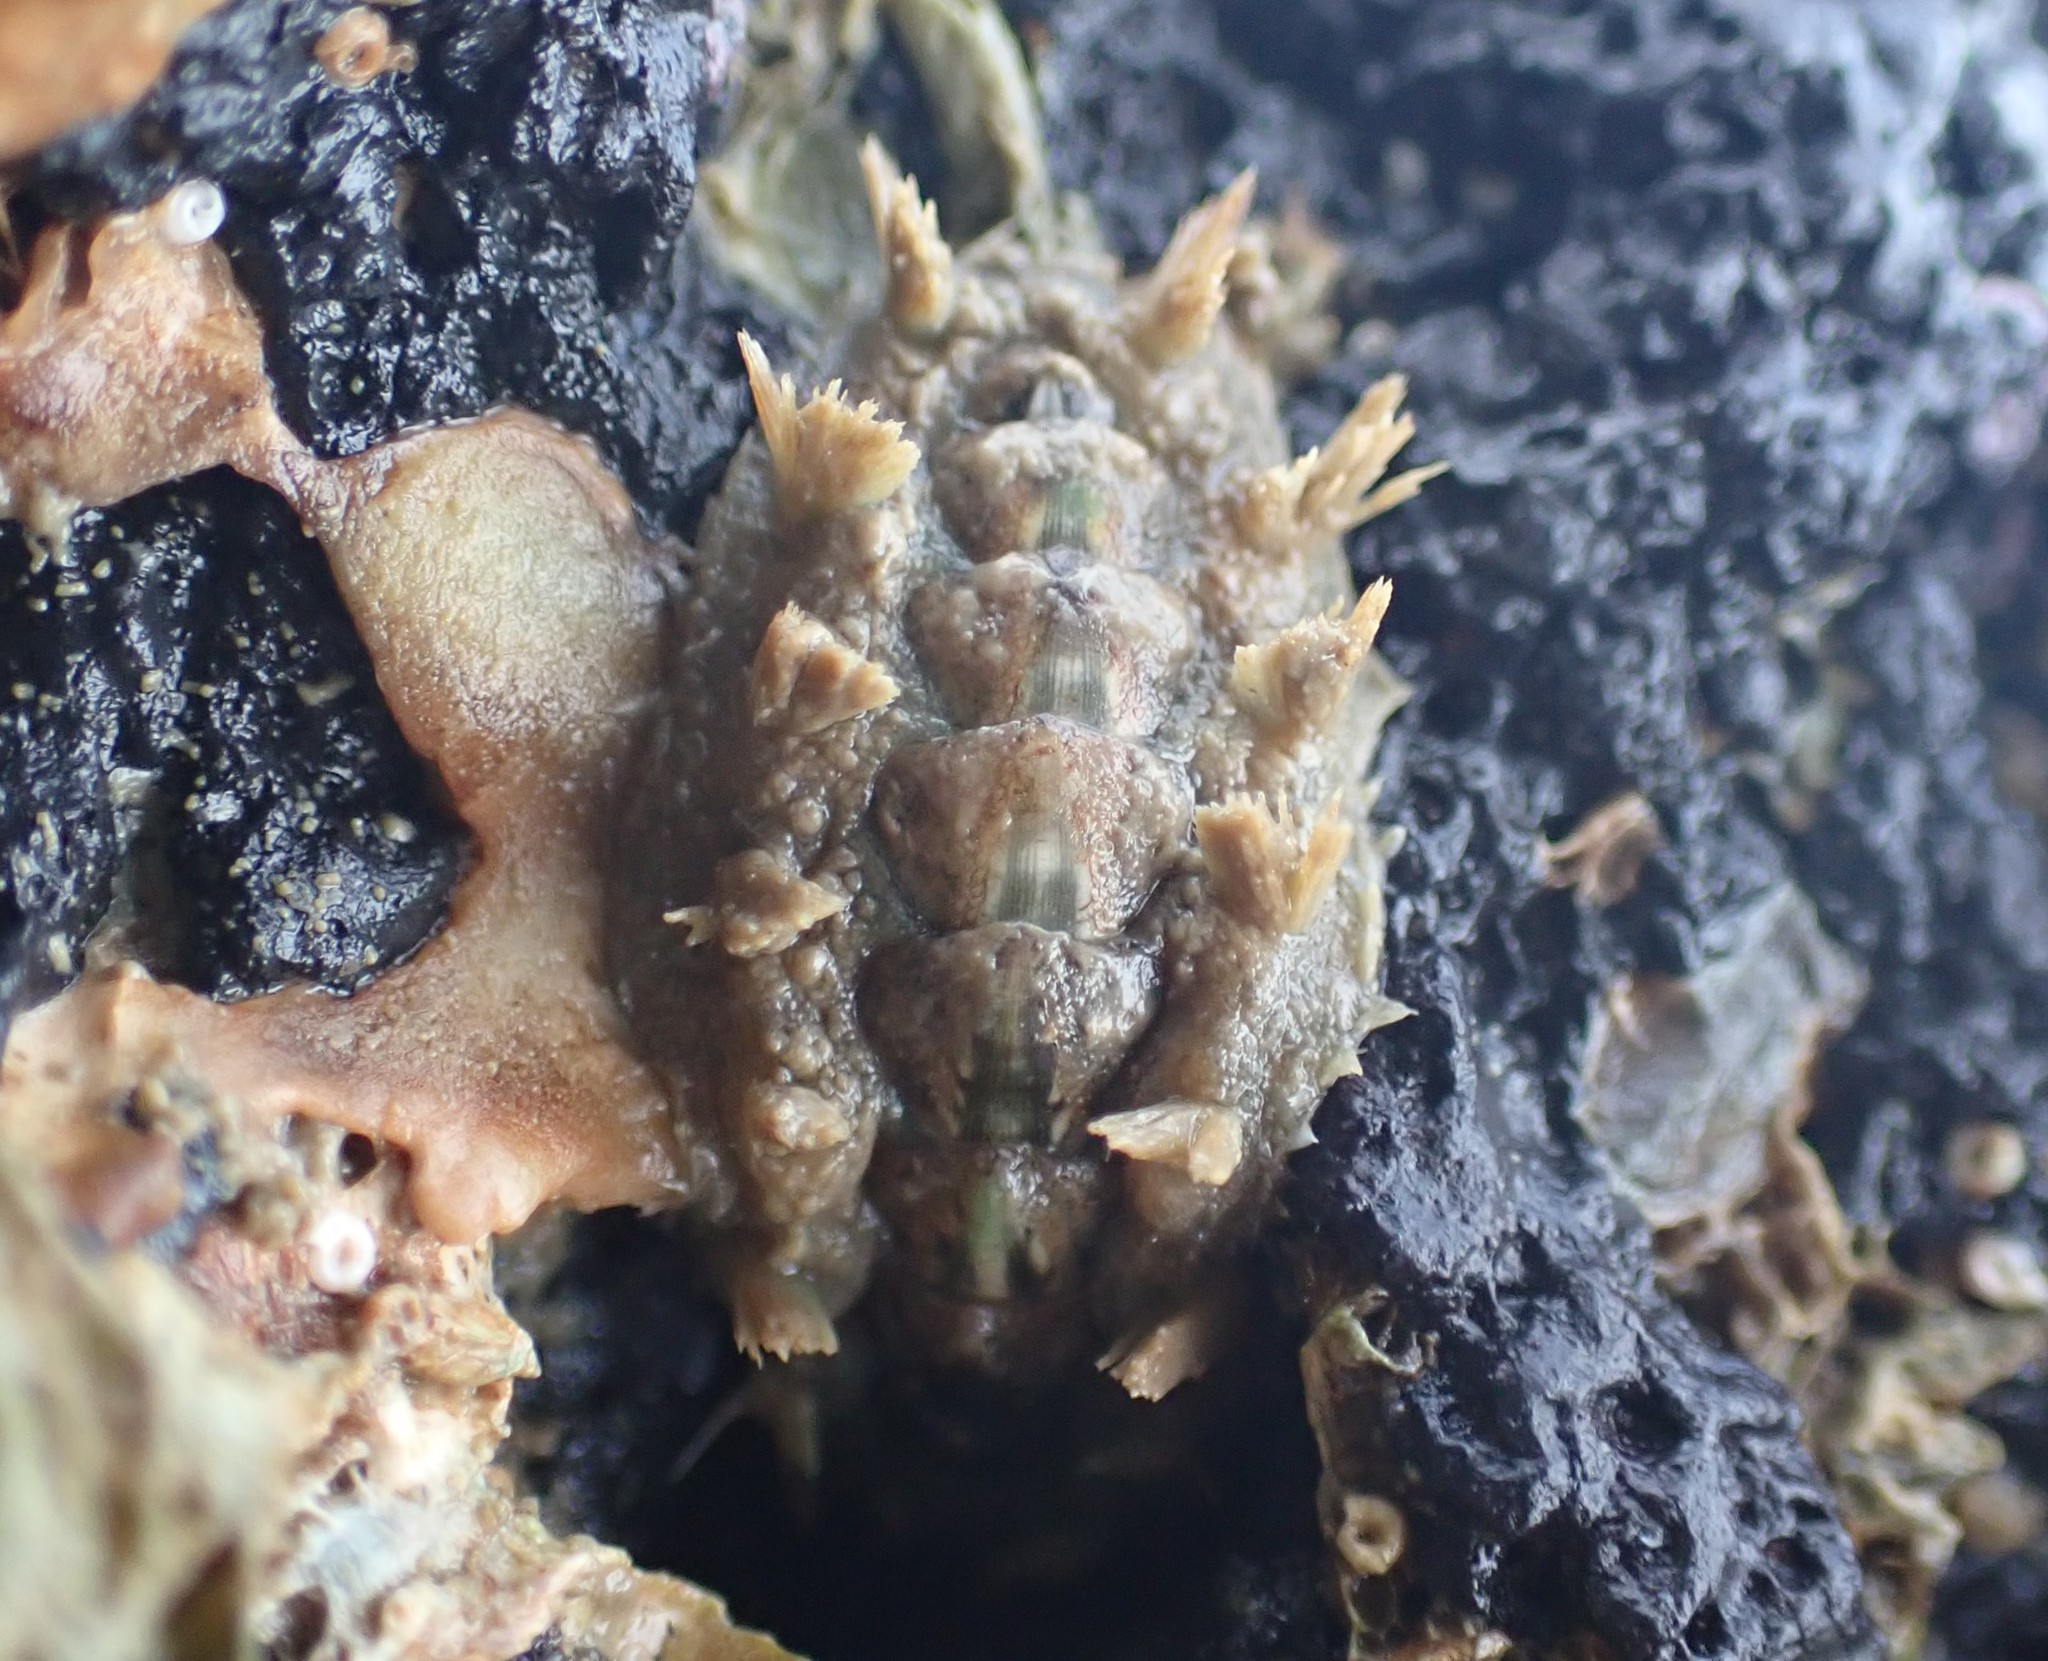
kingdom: Animalia
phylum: Mollusca
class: Polyplacophora
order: Chitonida
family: Acanthochitonidae
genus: Acanthochitona
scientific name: Acanthochitona zelandica
